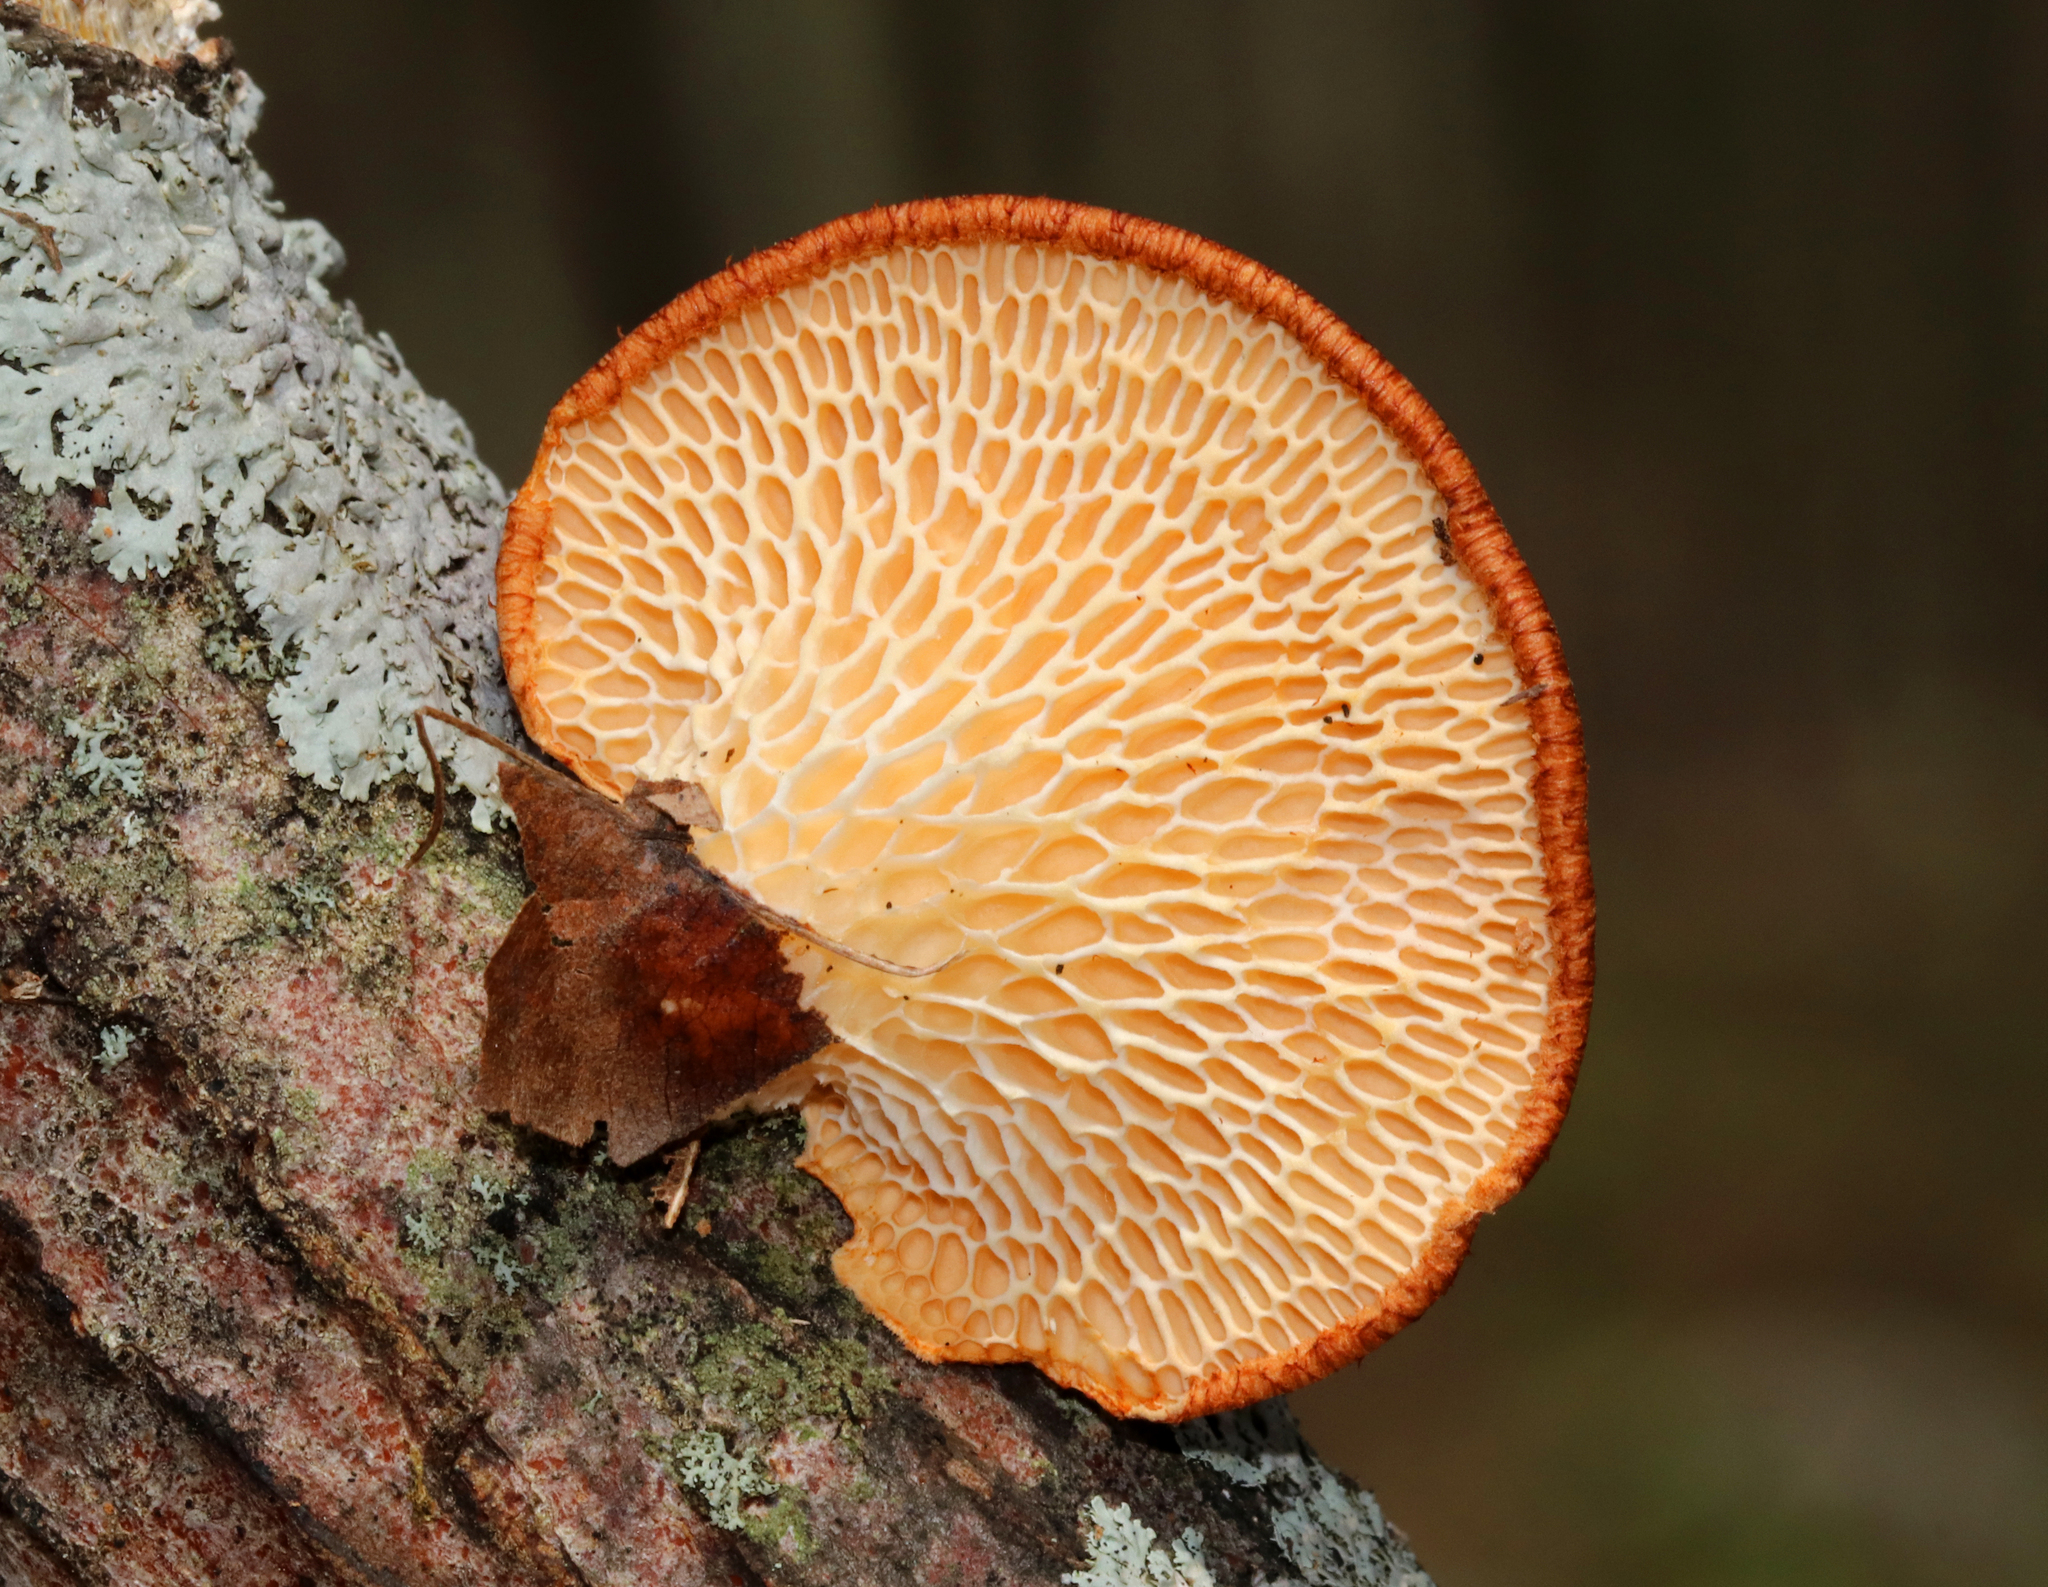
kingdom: Fungi
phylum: Basidiomycota
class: Agaricomycetes
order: Polyporales
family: Polyporaceae
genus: Neofavolus
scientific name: Neofavolus alveolaris
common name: Hexagonal-pored polypore
